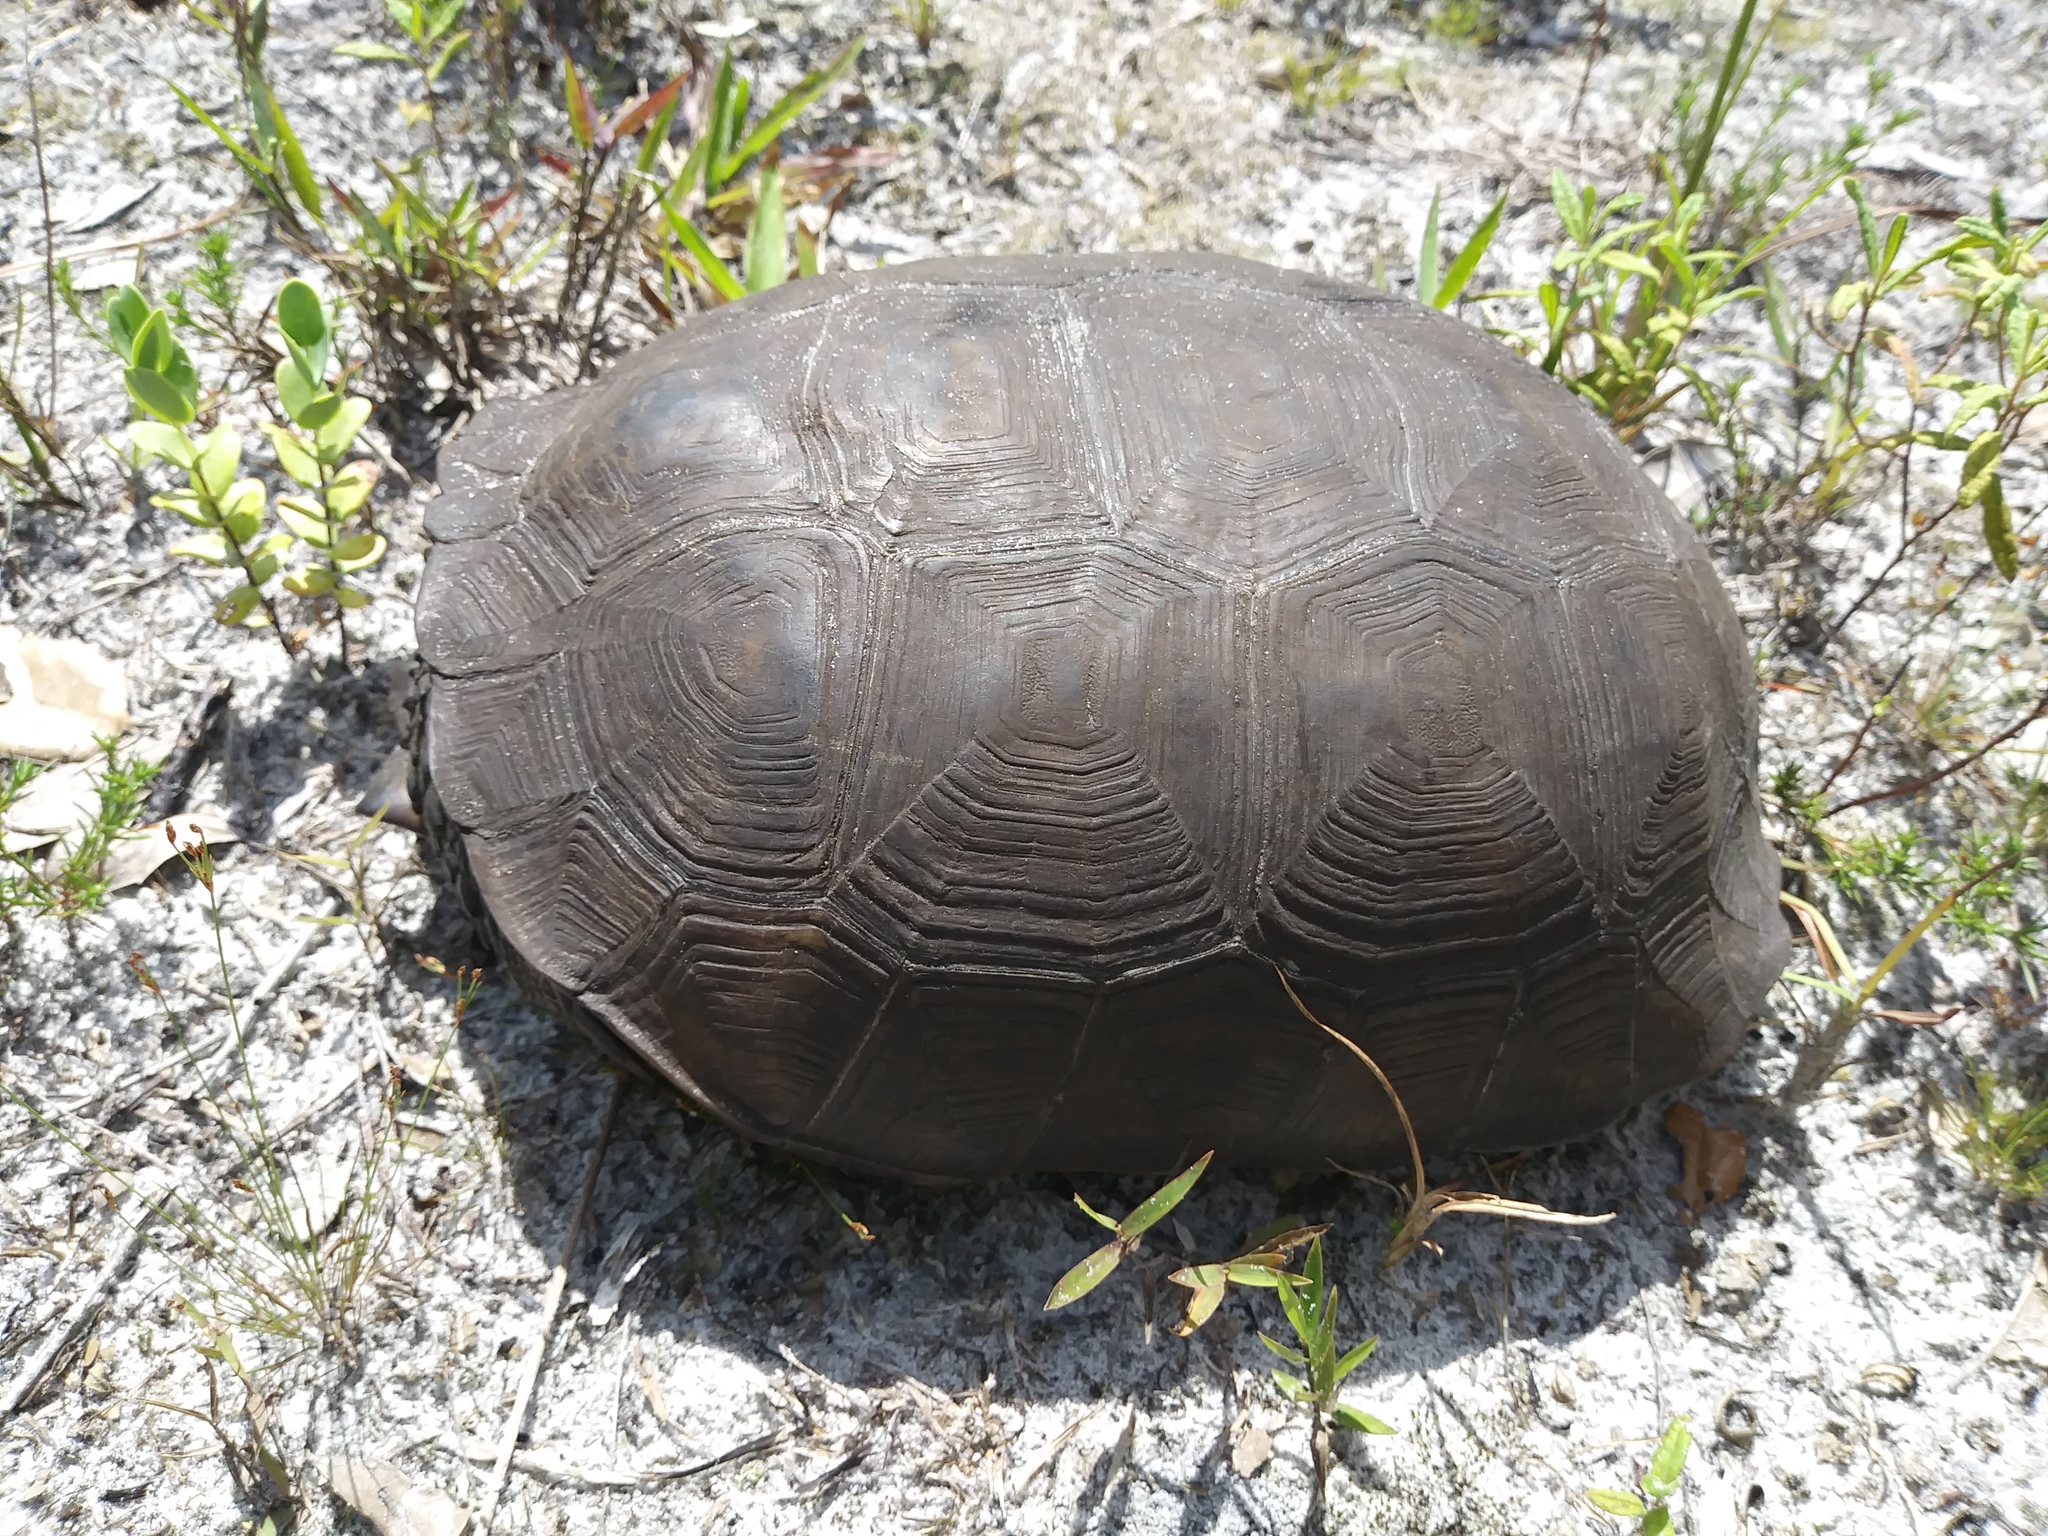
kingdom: Animalia
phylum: Chordata
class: Testudines
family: Testudinidae
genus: Gopherus
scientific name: Gopherus polyphemus
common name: Florida gopher tortoise
